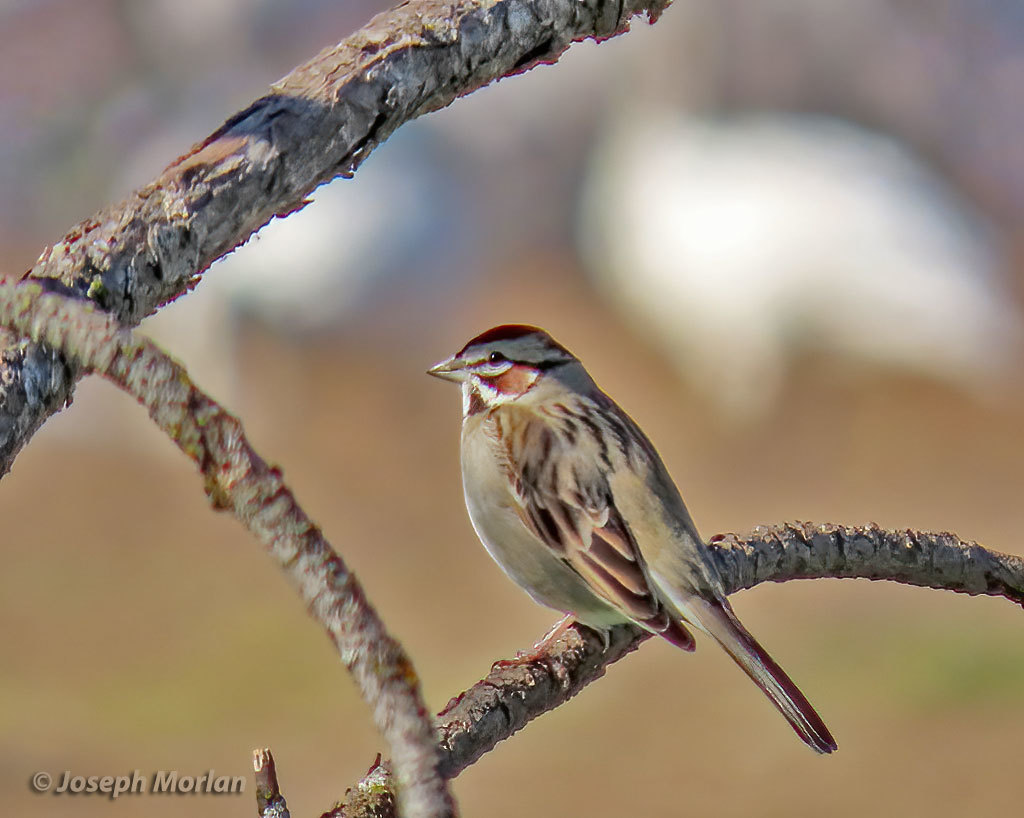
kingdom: Animalia
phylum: Chordata
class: Aves
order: Passeriformes
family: Passerellidae
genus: Chondestes
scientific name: Chondestes grammacus
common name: Lark sparrow
